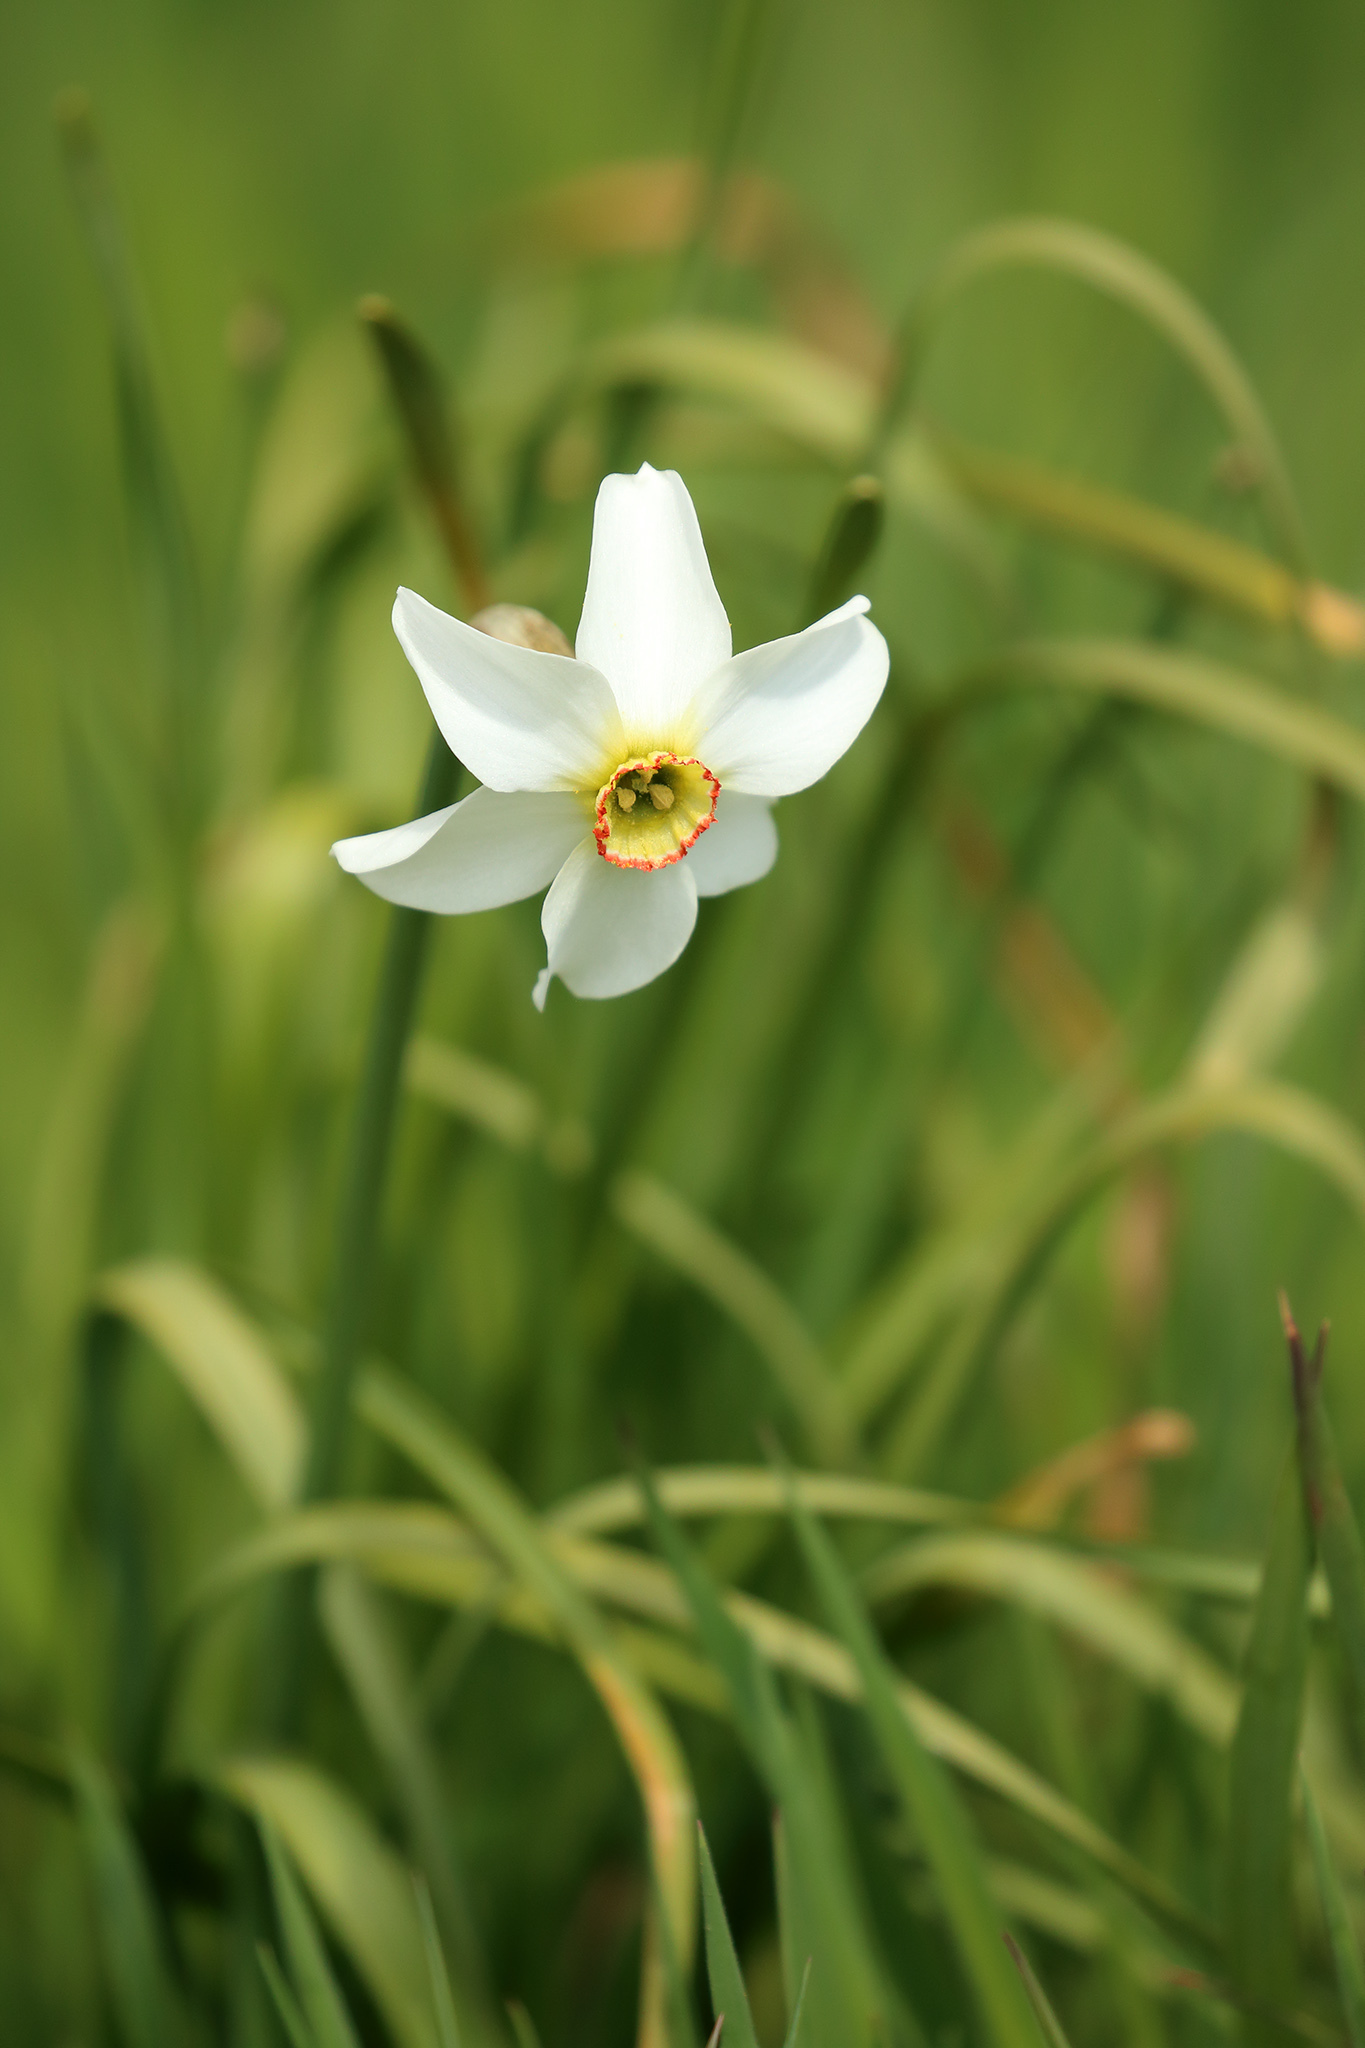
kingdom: Plantae
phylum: Tracheophyta
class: Liliopsida
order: Asparagales
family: Amaryllidaceae
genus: Narcissus
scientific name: Narcissus poeticus
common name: Pheasant's-eye daffodil
